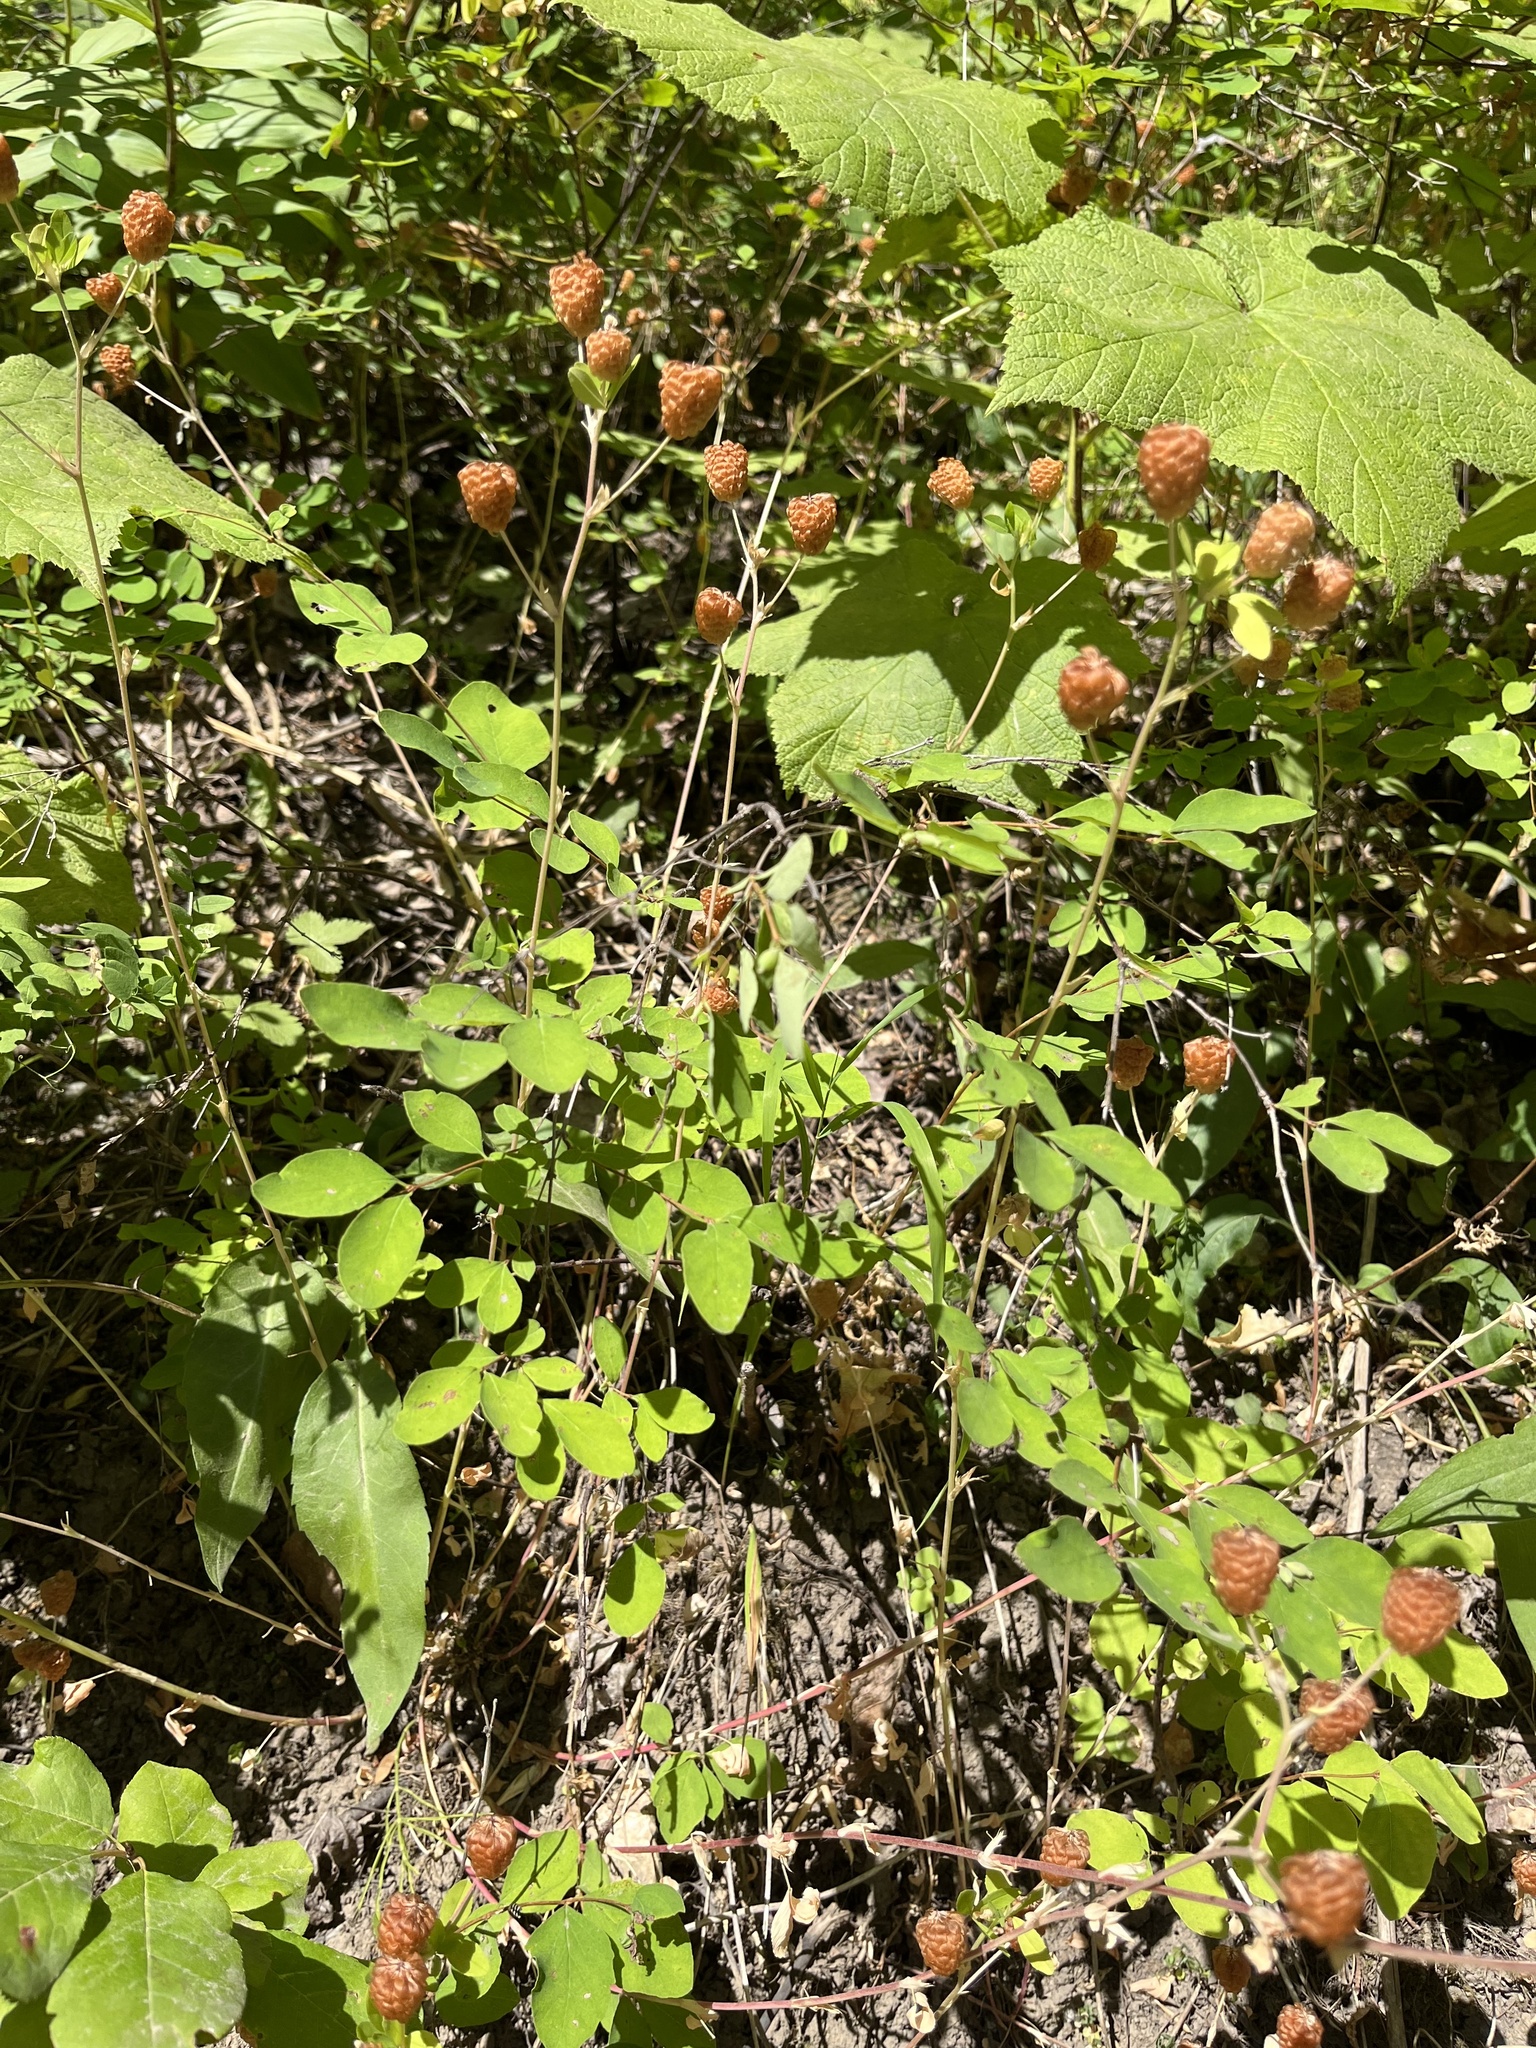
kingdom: Plantae
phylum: Tracheophyta
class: Magnoliopsida
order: Fabales
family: Fabaceae
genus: Trifolium
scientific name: Trifolium aureum
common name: Golden clover
